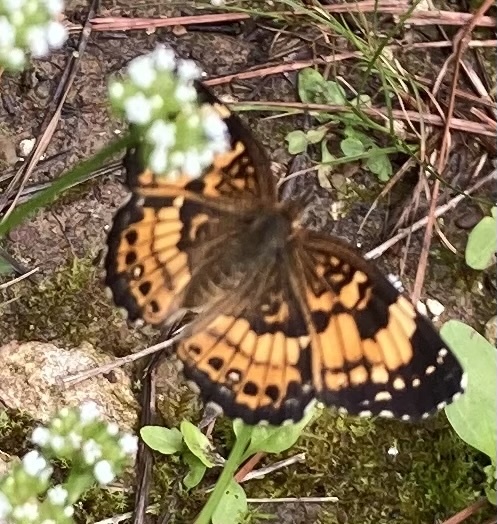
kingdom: Animalia
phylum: Arthropoda
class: Insecta
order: Lepidoptera
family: Nymphalidae
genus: Chlosyne
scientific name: Chlosyne nycteis
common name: Silvery checkerspot
